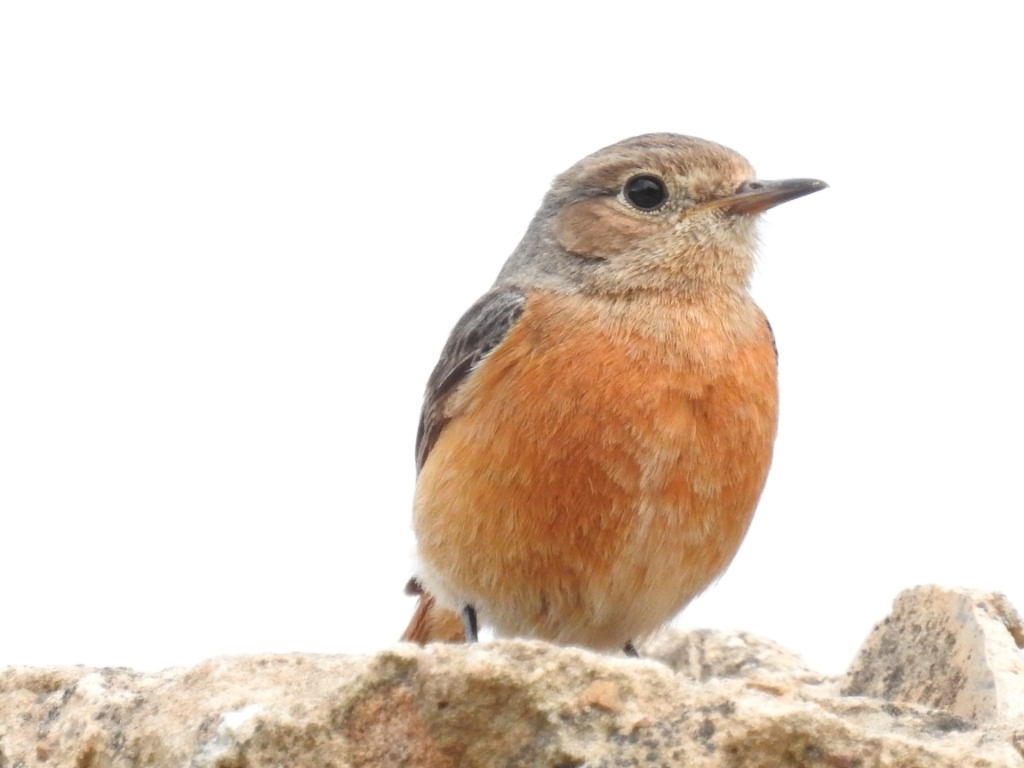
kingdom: Animalia
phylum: Chordata
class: Aves
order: Passeriformes
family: Muscicapidae
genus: Phoenicurus
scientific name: Phoenicurus moussieri
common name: Moussier's redstart
